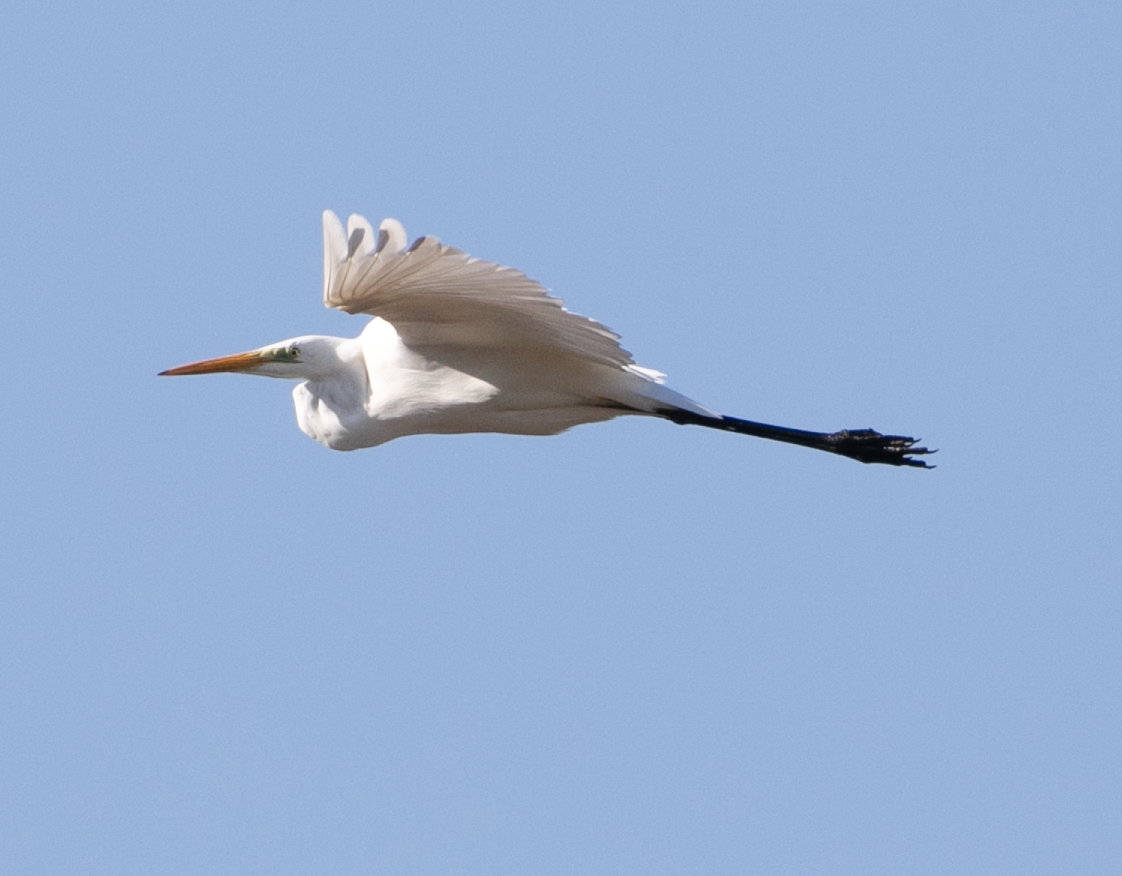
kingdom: Animalia
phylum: Chordata
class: Aves
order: Pelecaniformes
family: Ardeidae
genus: Ardea
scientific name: Ardea alba
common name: Great egret
